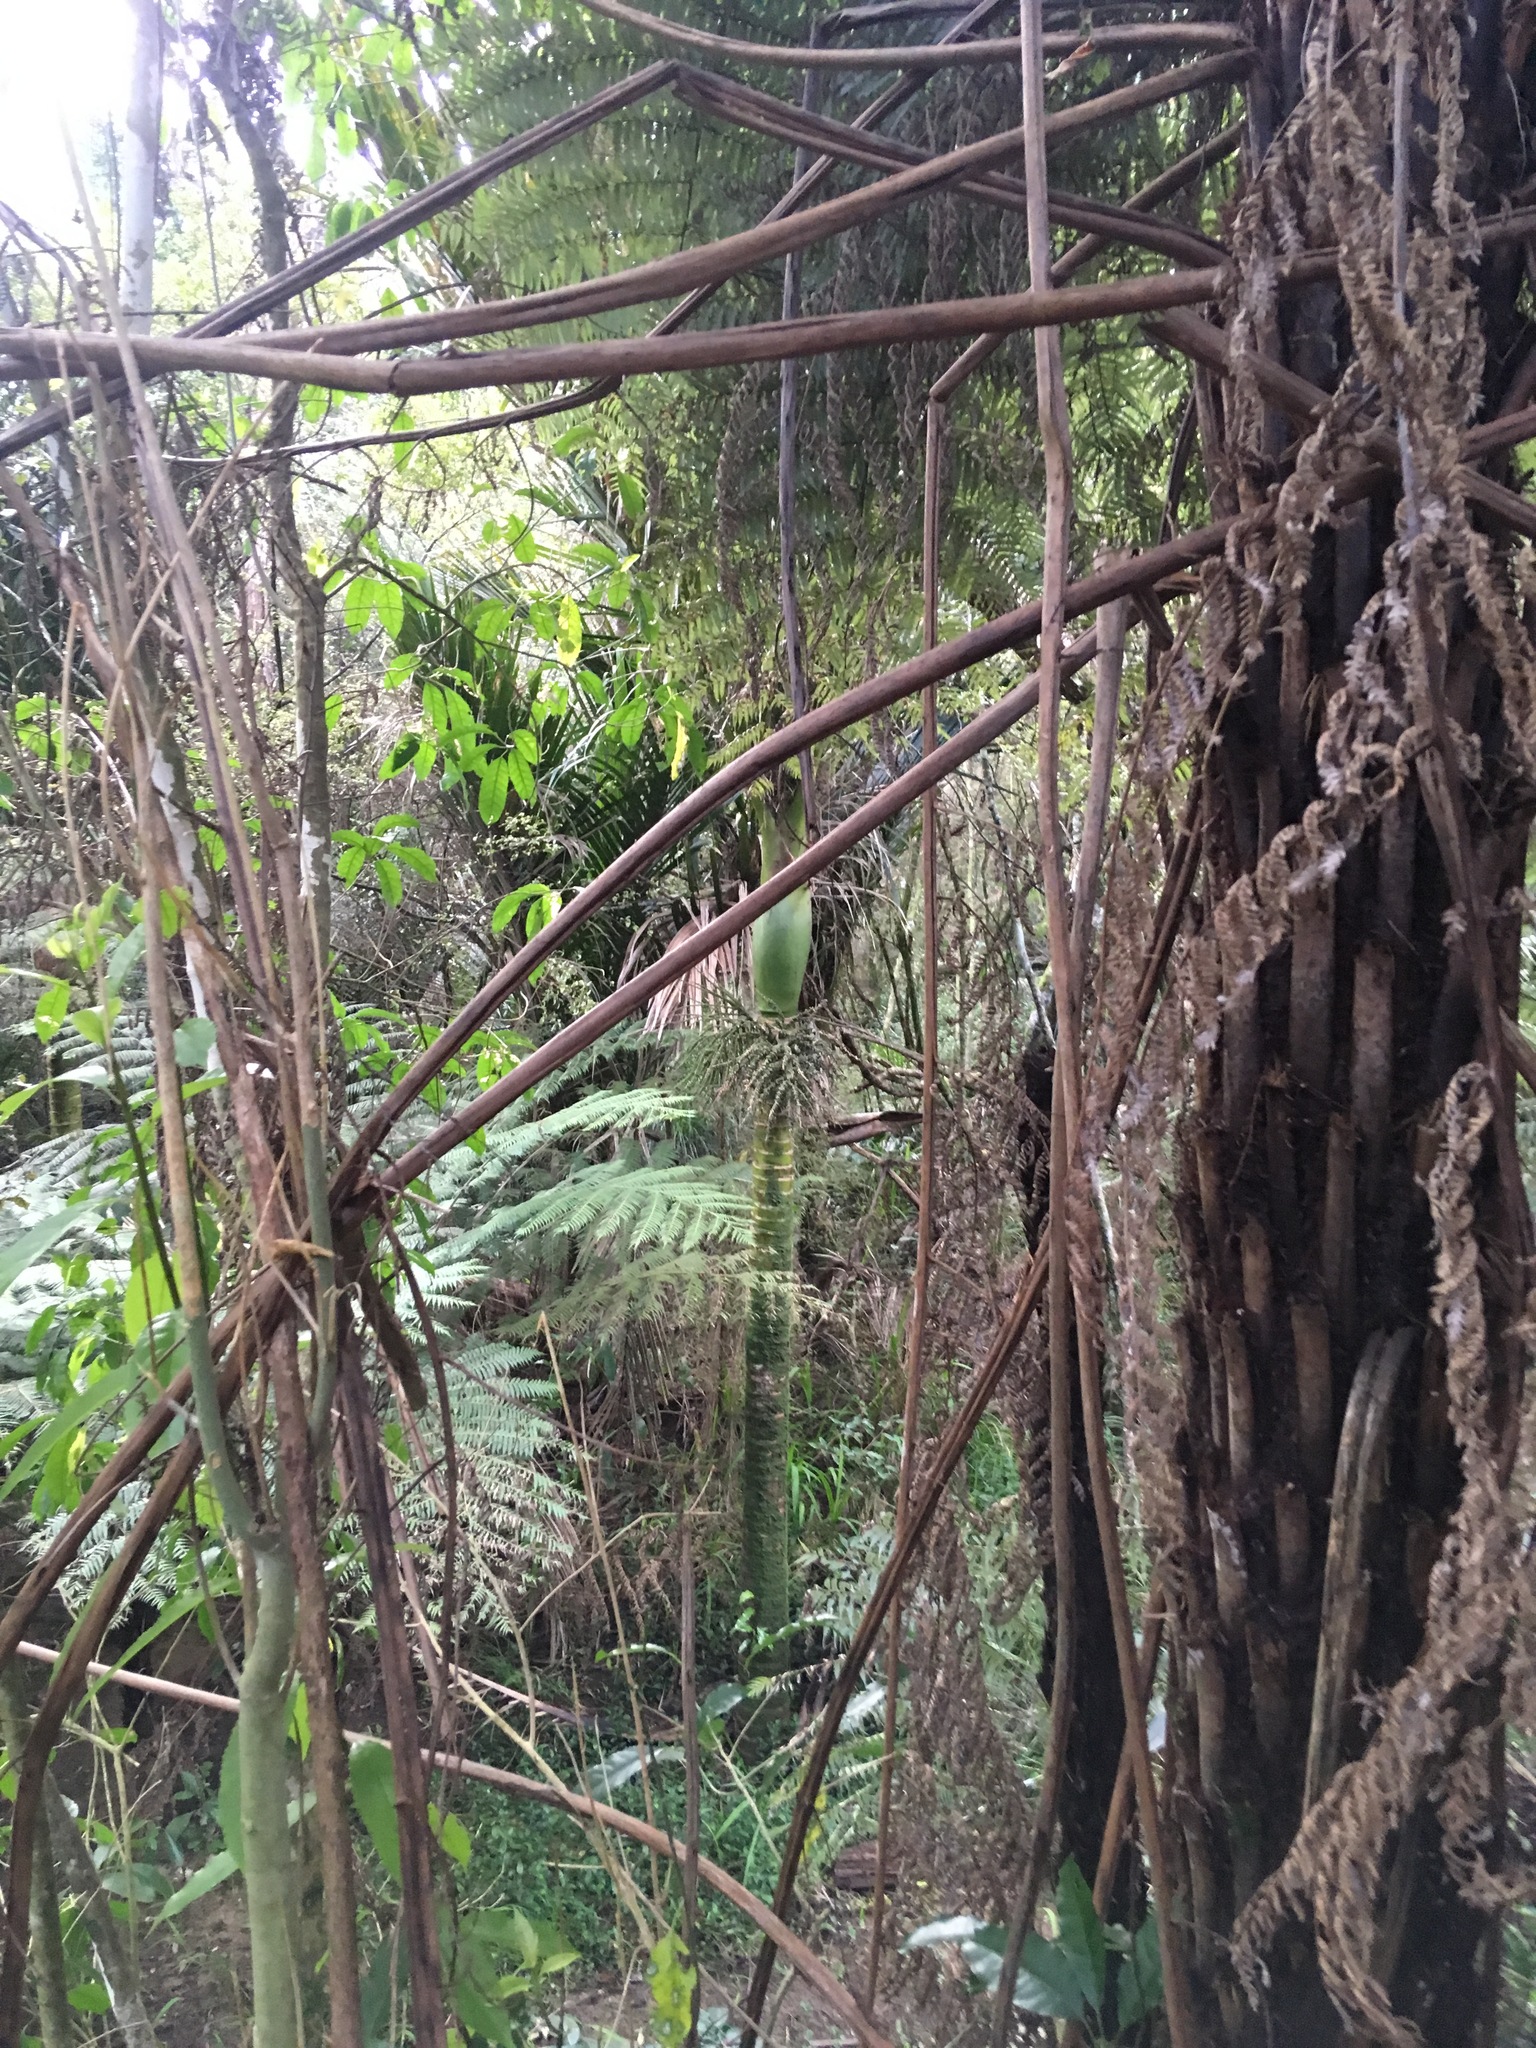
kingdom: Plantae
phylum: Tracheophyta
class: Liliopsida
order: Arecales
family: Arecaceae
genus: Rhopalostylis
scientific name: Rhopalostylis sapida
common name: Feather-duster palm
